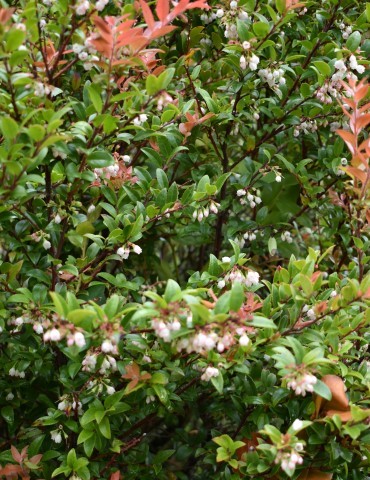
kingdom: Plantae
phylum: Tracheophyta
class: Magnoliopsida
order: Ericales
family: Ericaceae
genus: Vaccinium
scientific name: Vaccinium ovatum
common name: California-huckleberry
